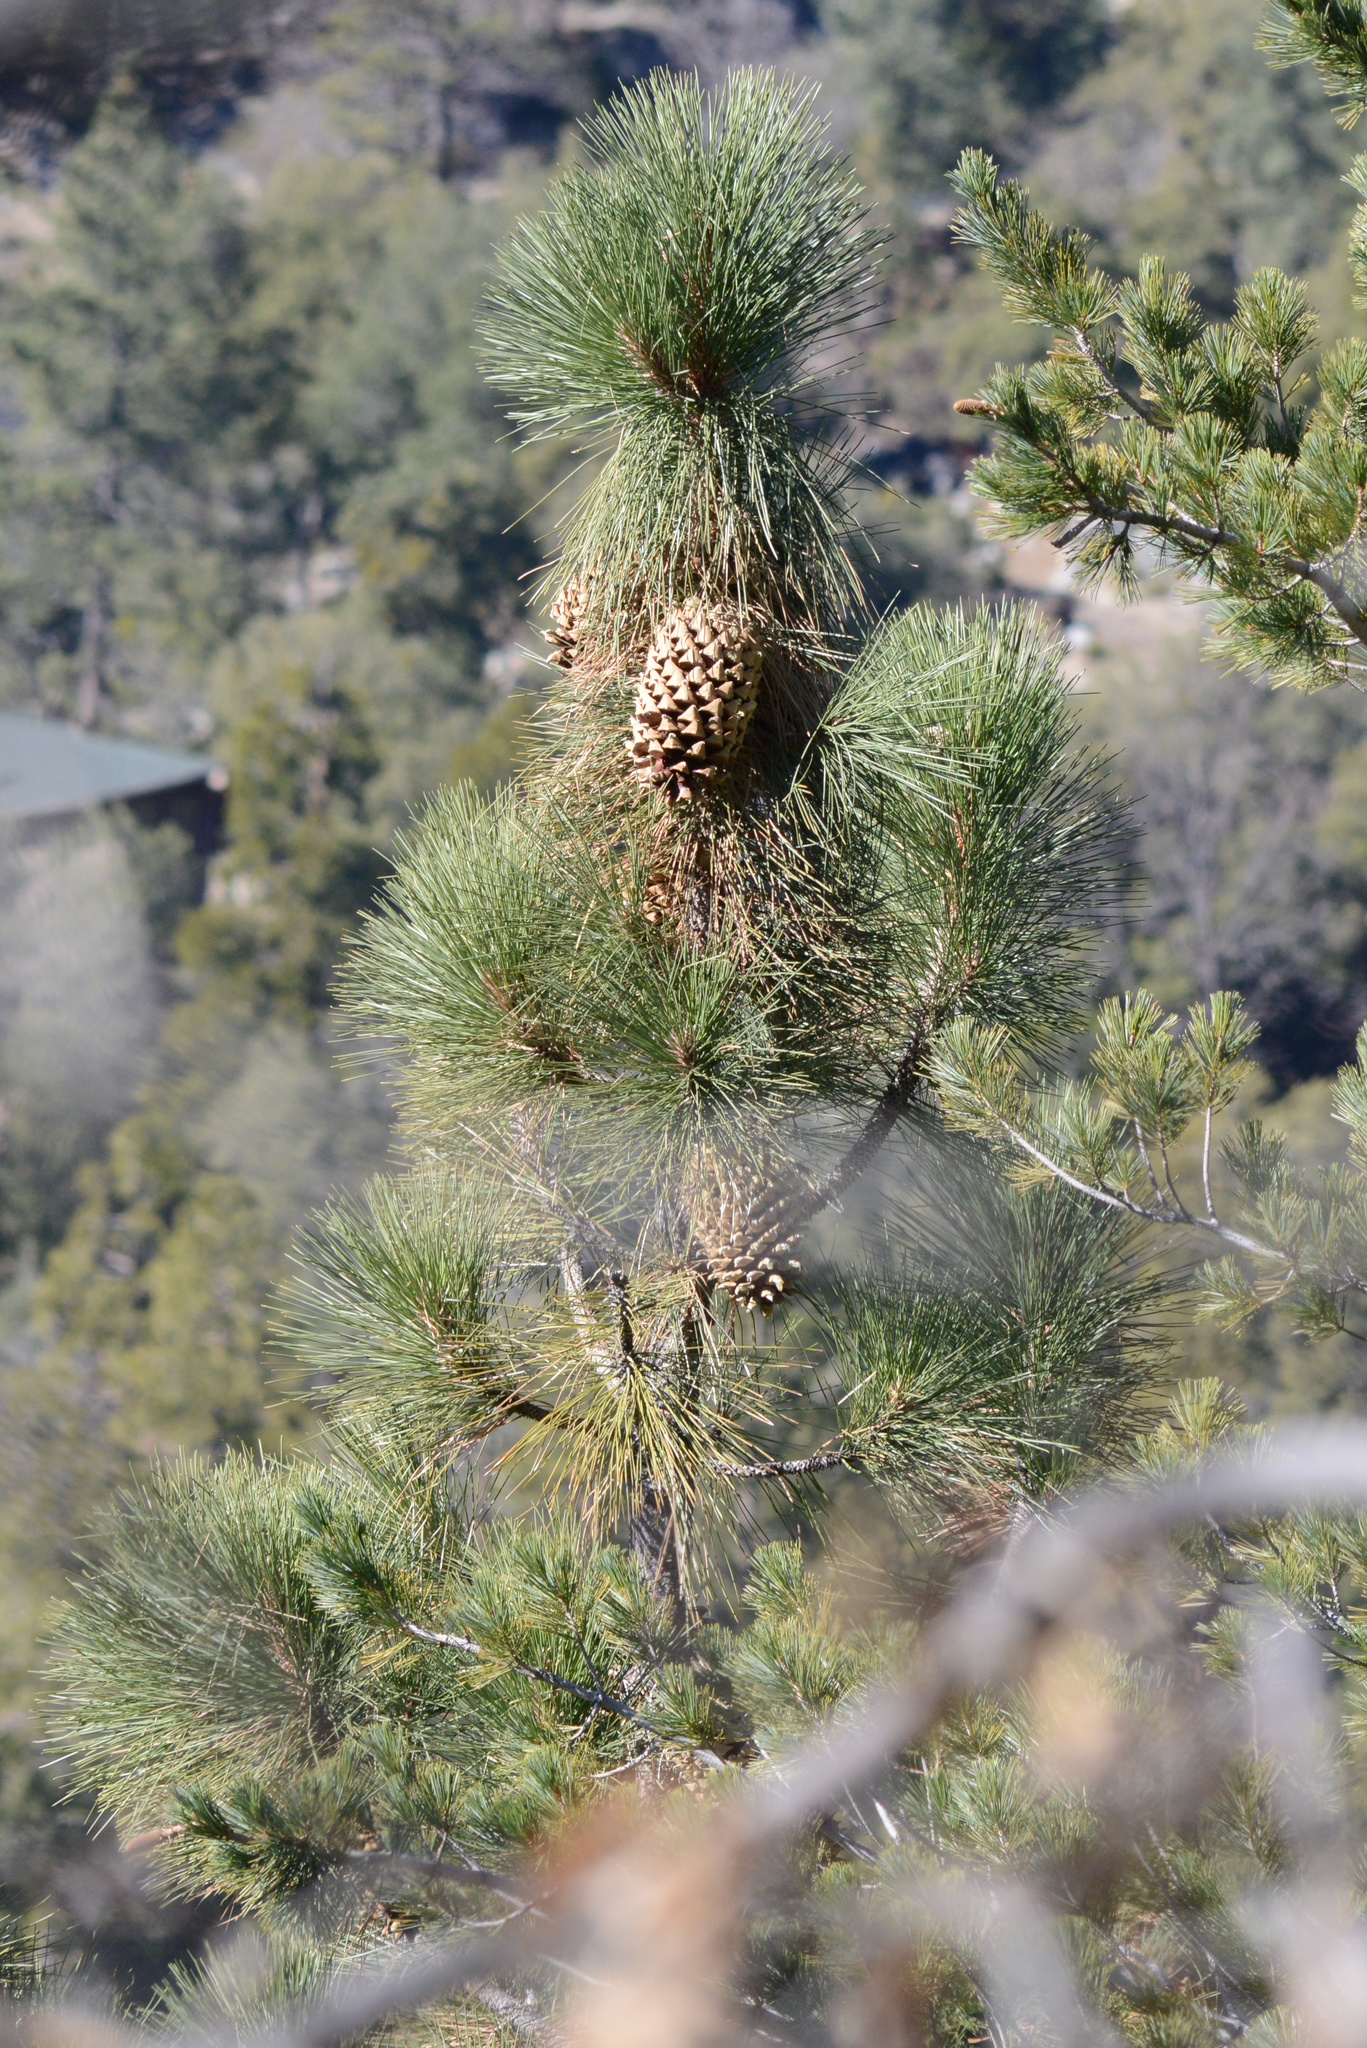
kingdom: Plantae
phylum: Tracheophyta
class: Pinopsida
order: Pinales
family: Pinaceae
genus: Pinus
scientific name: Pinus coulteri
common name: Coulter pine
